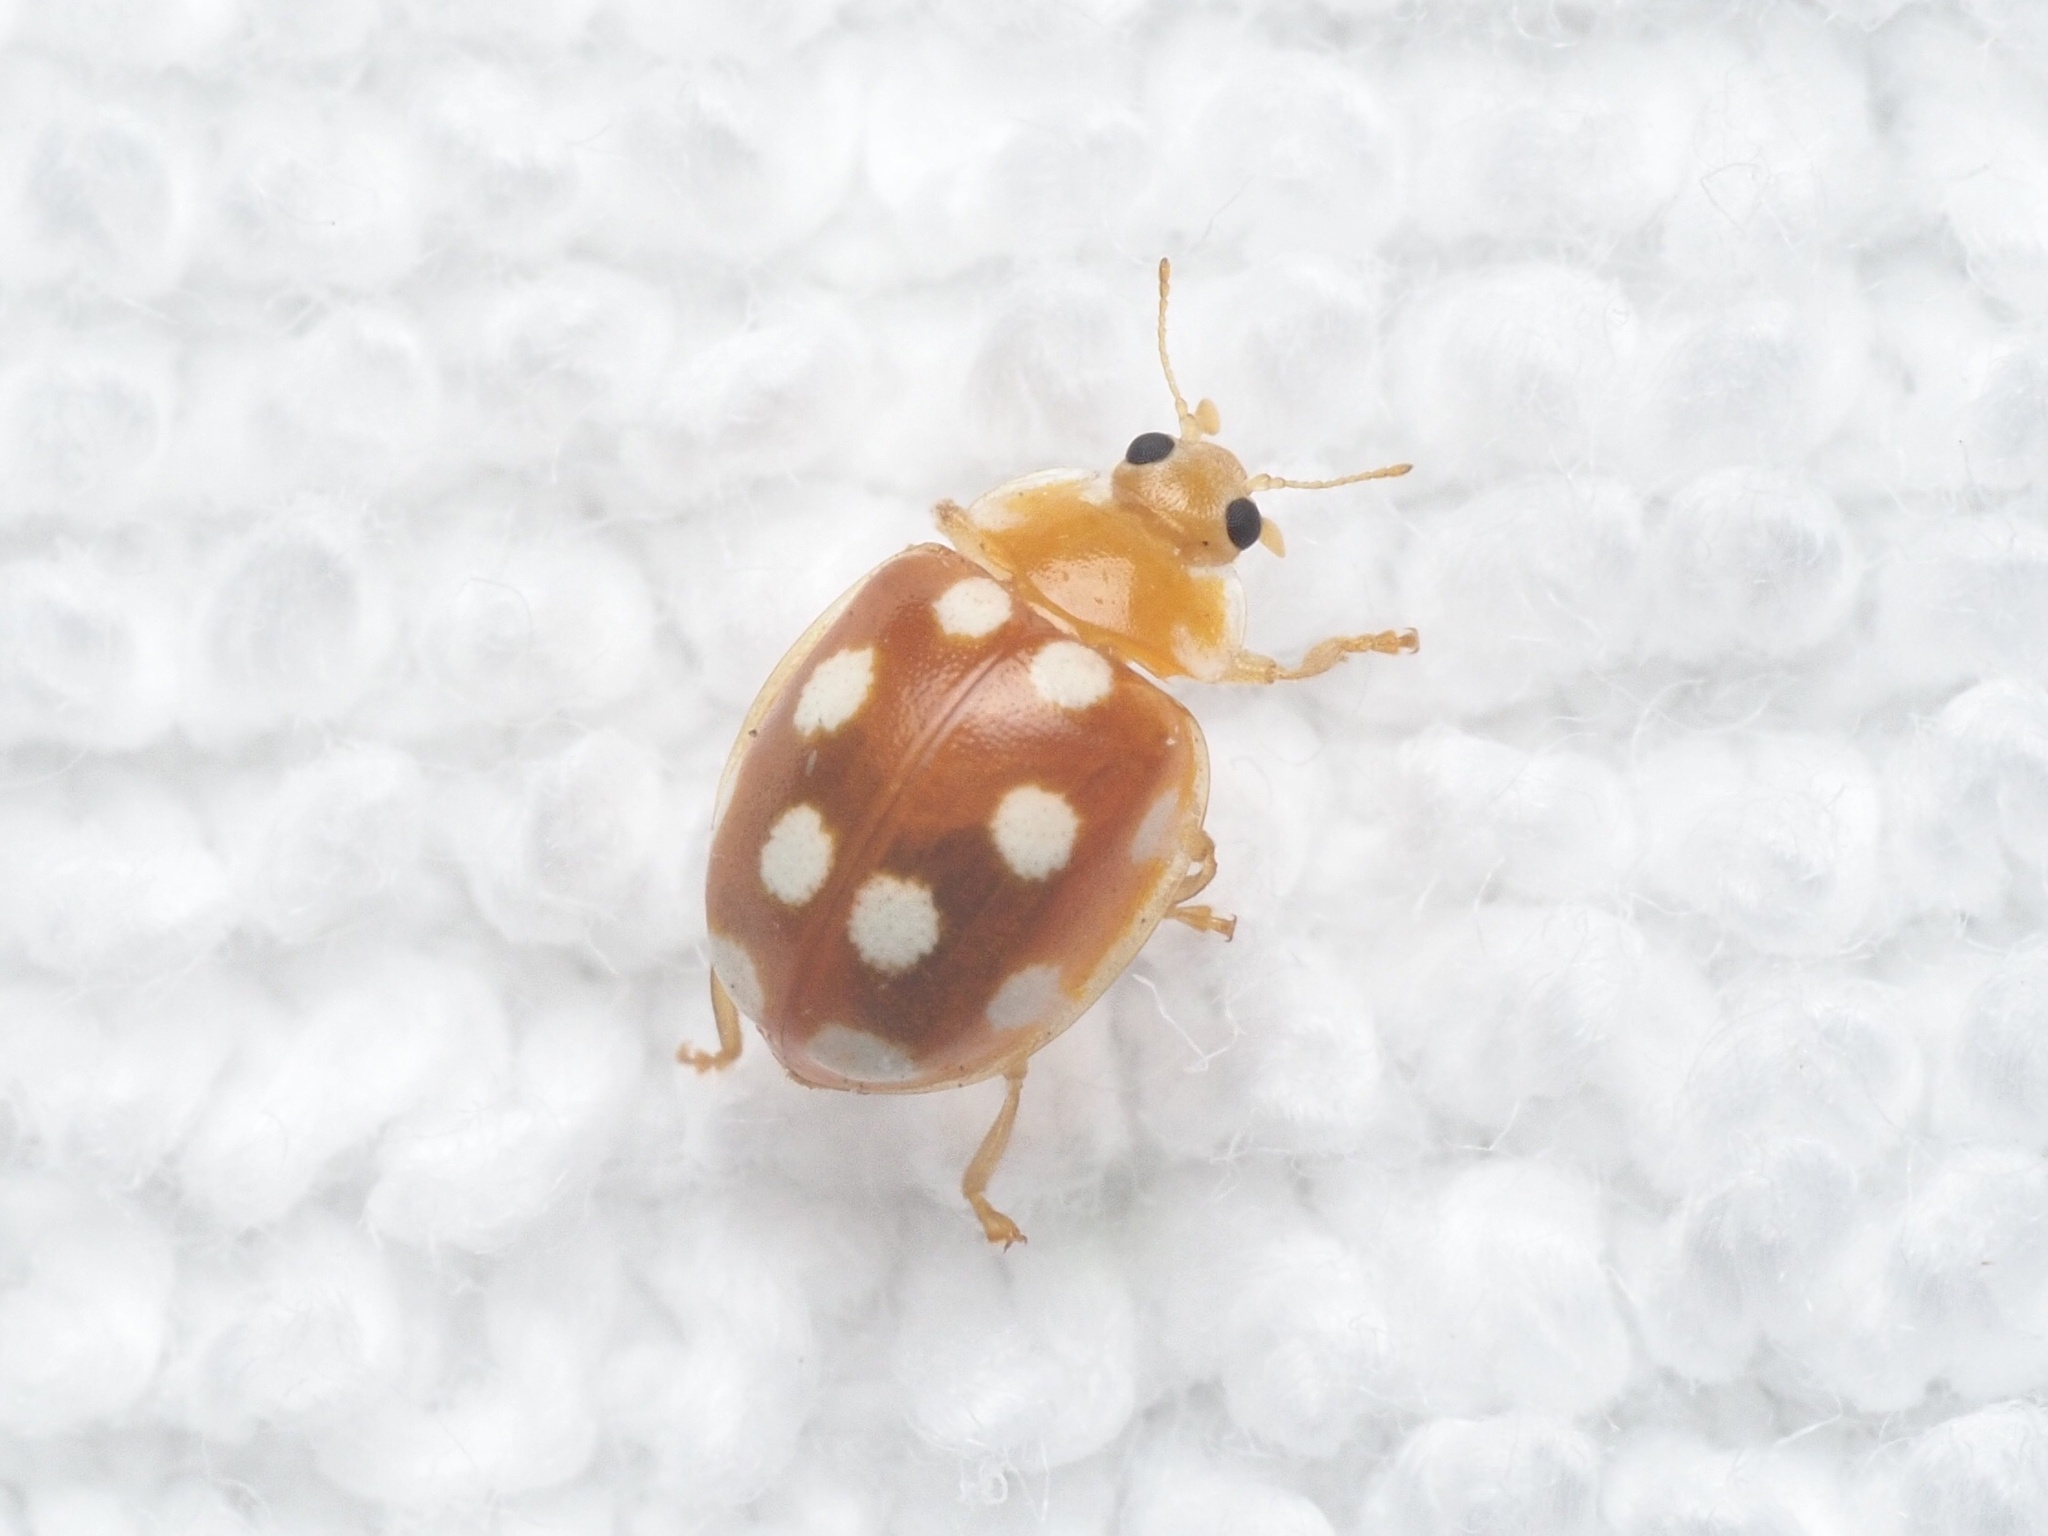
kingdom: Animalia
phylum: Arthropoda
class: Insecta
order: Coleoptera
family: Coccinellidae
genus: Vibidia
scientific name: Vibidia duodecimguttata
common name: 12-spot ladybird
